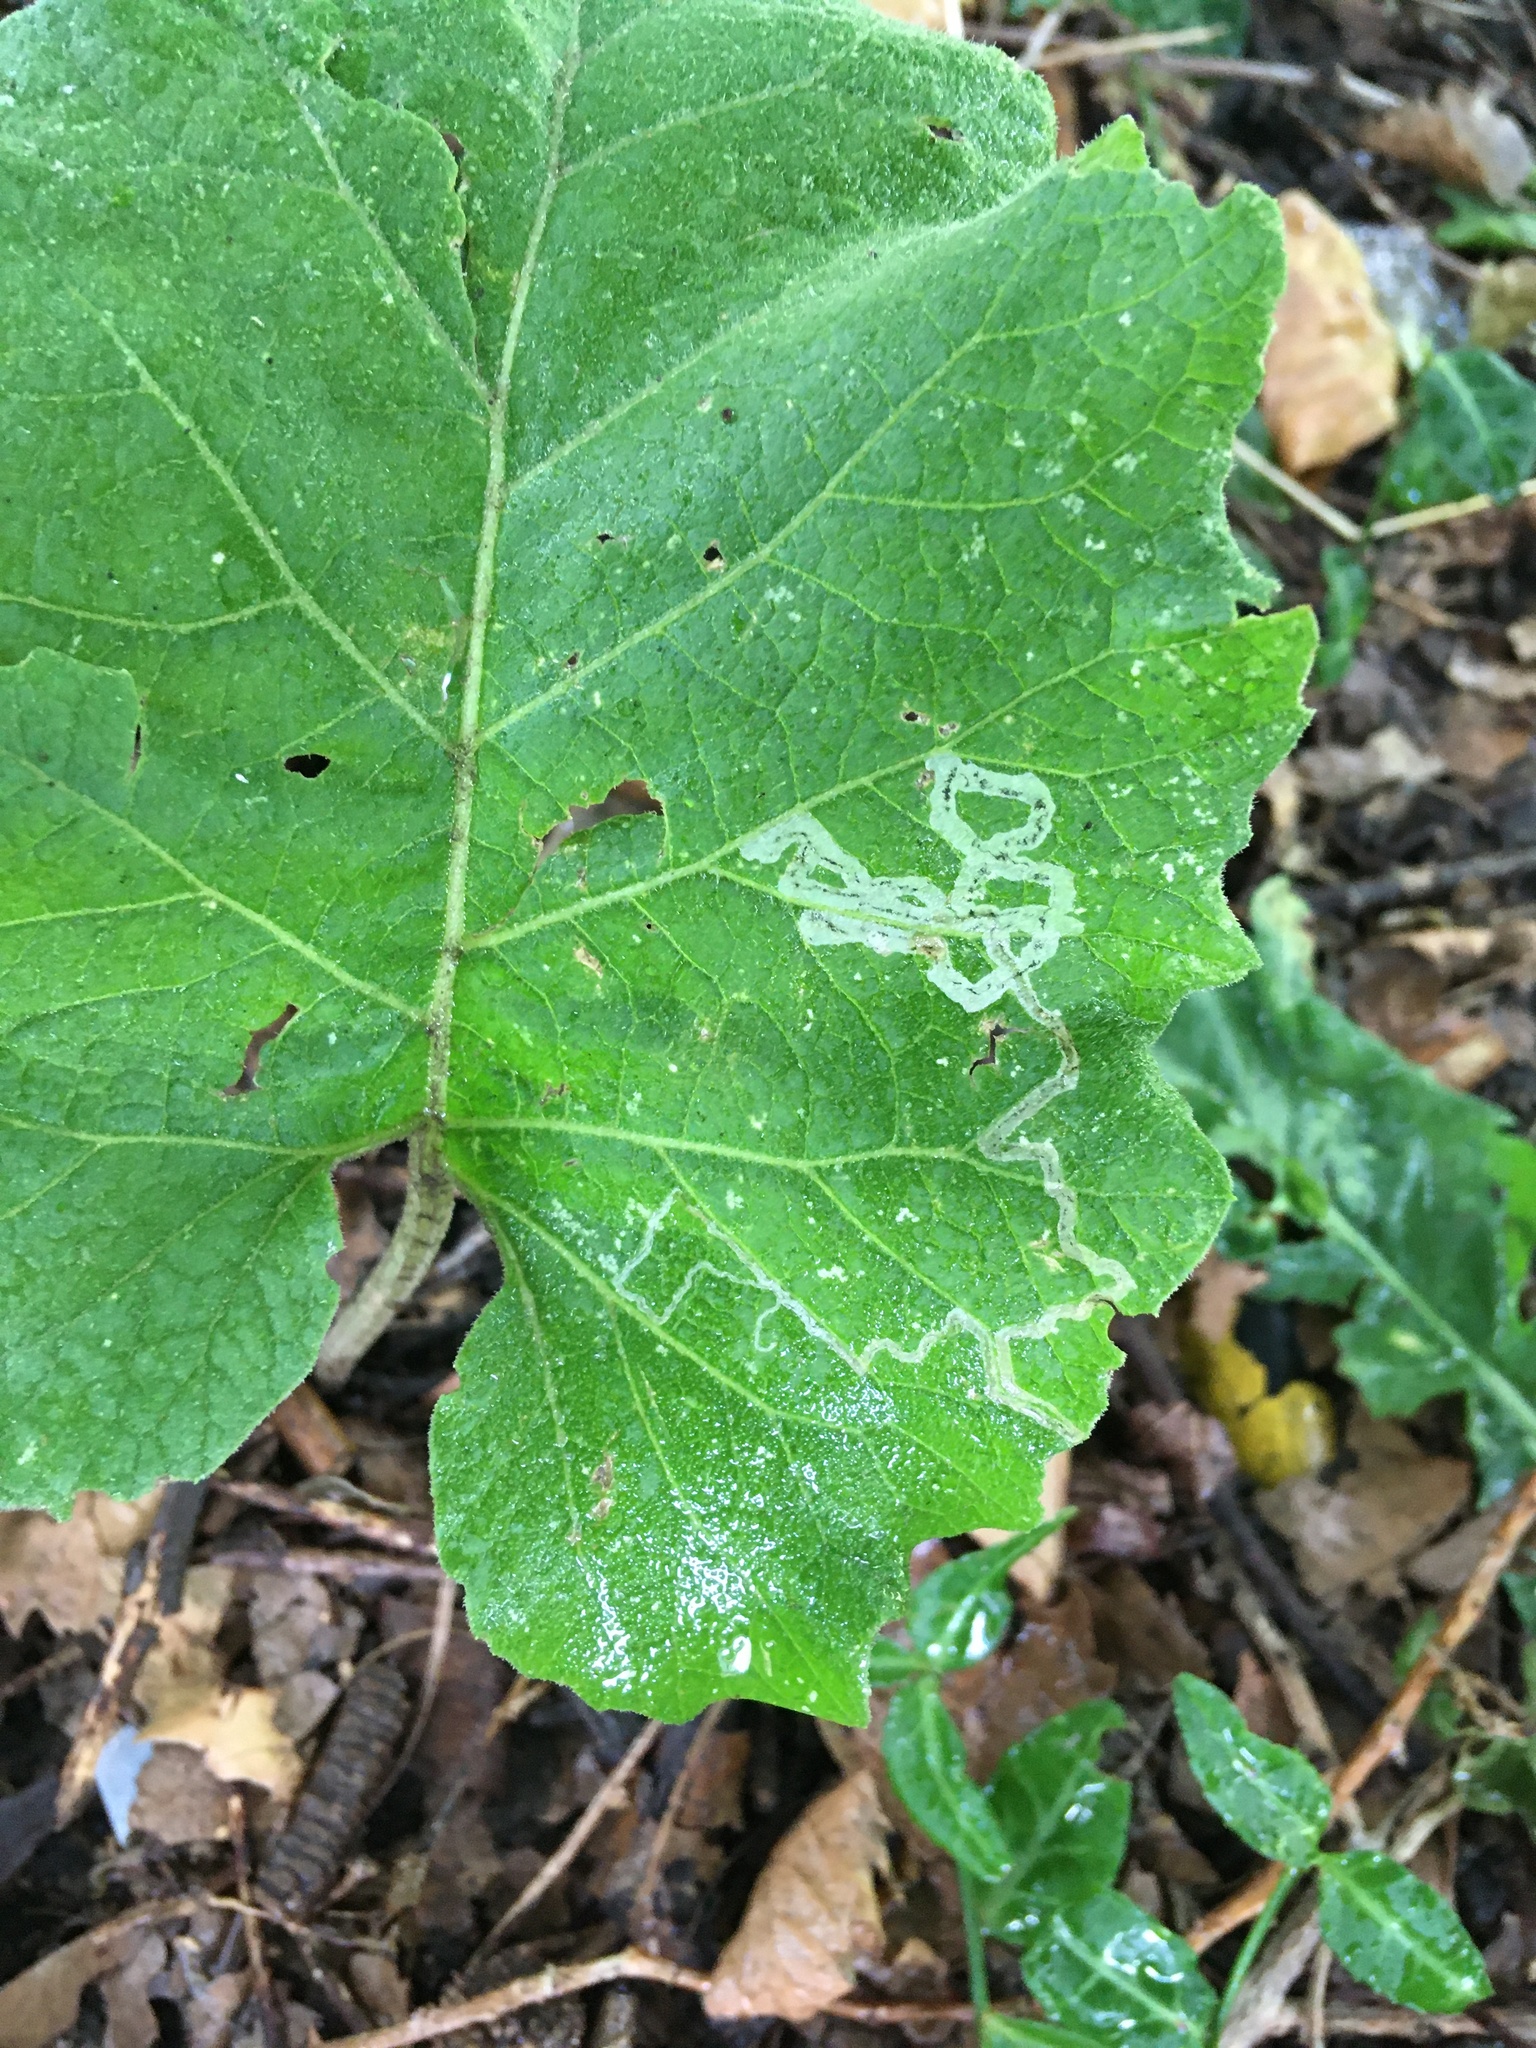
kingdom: Animalia
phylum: Arthropoda
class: Insecta
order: Diptera
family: Agromyzidae
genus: Liriomyza
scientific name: Liriomyza arctii
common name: Burdock leafminer
